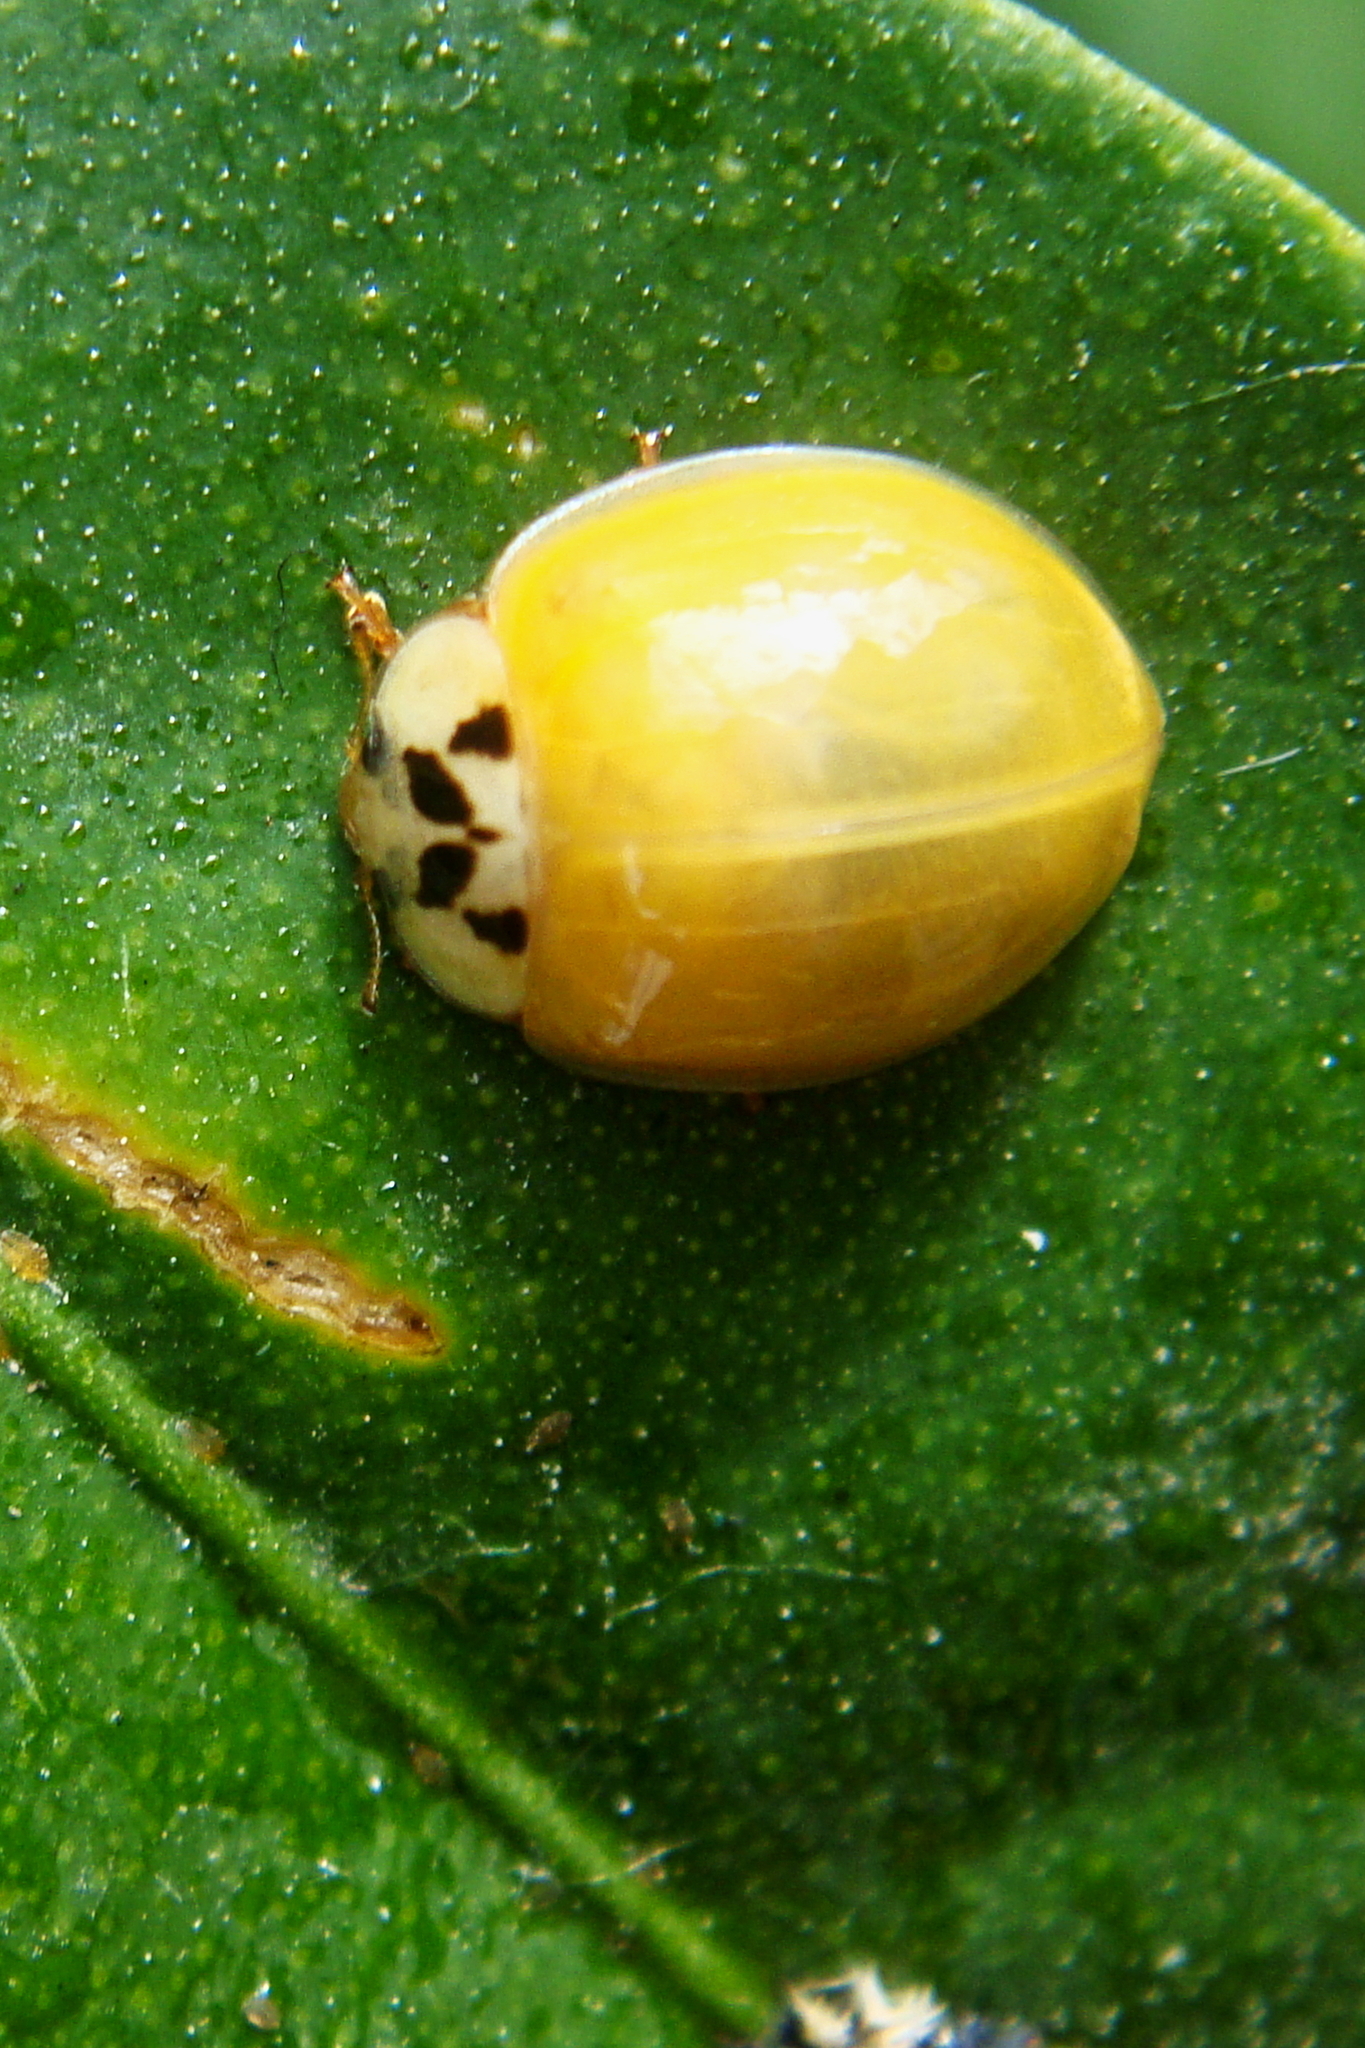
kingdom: Animalia
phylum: Arthropoda
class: Insecta
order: Coleoptera
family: Coccinellidae
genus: Harmonia
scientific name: Harmonia axyridis
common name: Harlequin ladybird
